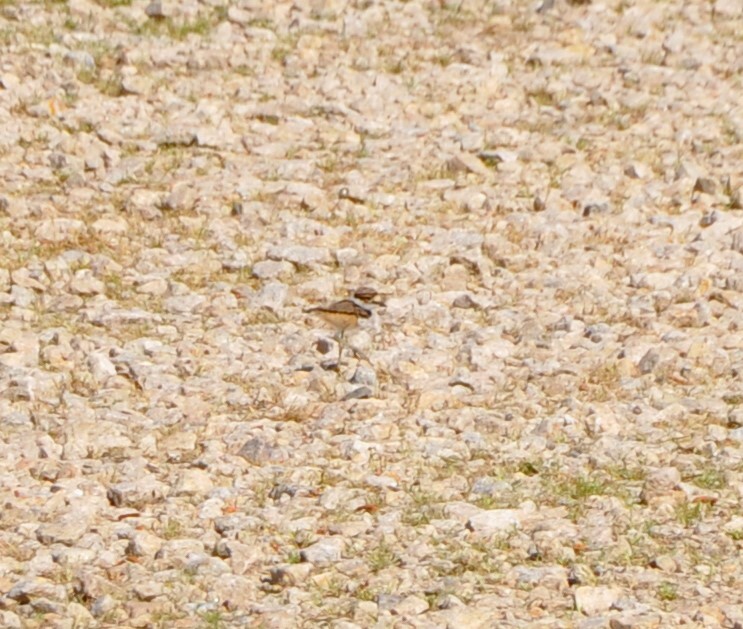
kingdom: Animalia
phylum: Chordata
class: Aves
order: Charadriiformes
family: Charadriidae
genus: Charadrius
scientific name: Charadrius vociferus
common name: Killdeer
